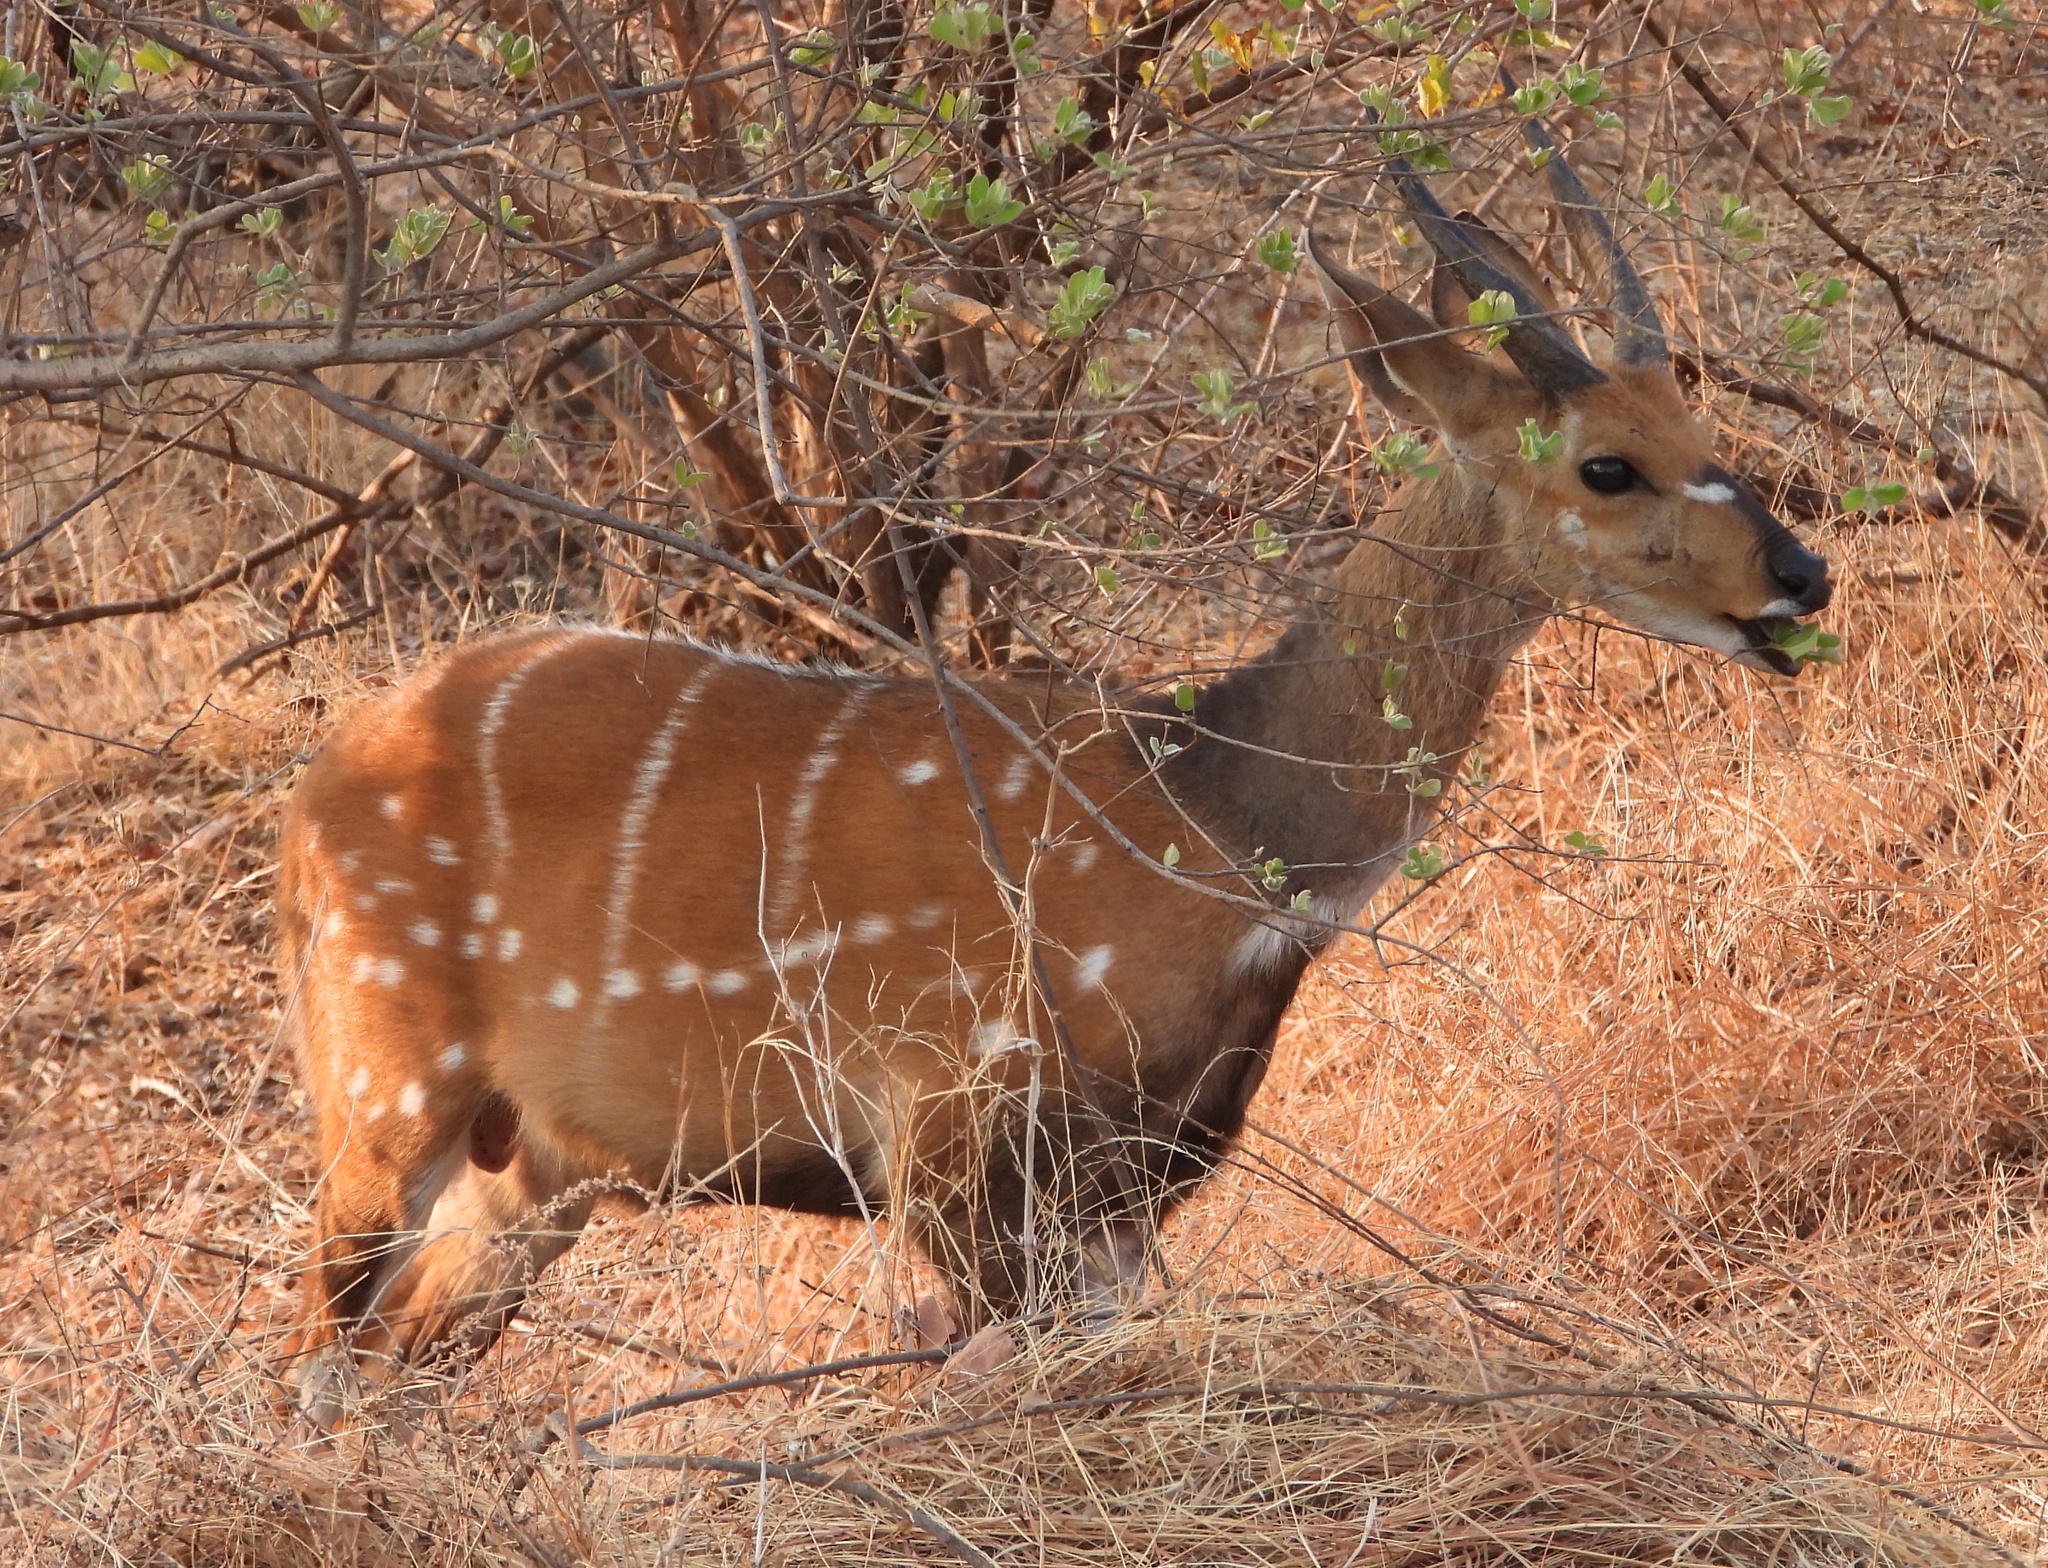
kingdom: Animalia
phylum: Chordata
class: Mammalia
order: Artiodactyla
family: Bovidae
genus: Tragelaphus
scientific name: Tragelaphus scriptus
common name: Bushbuck
